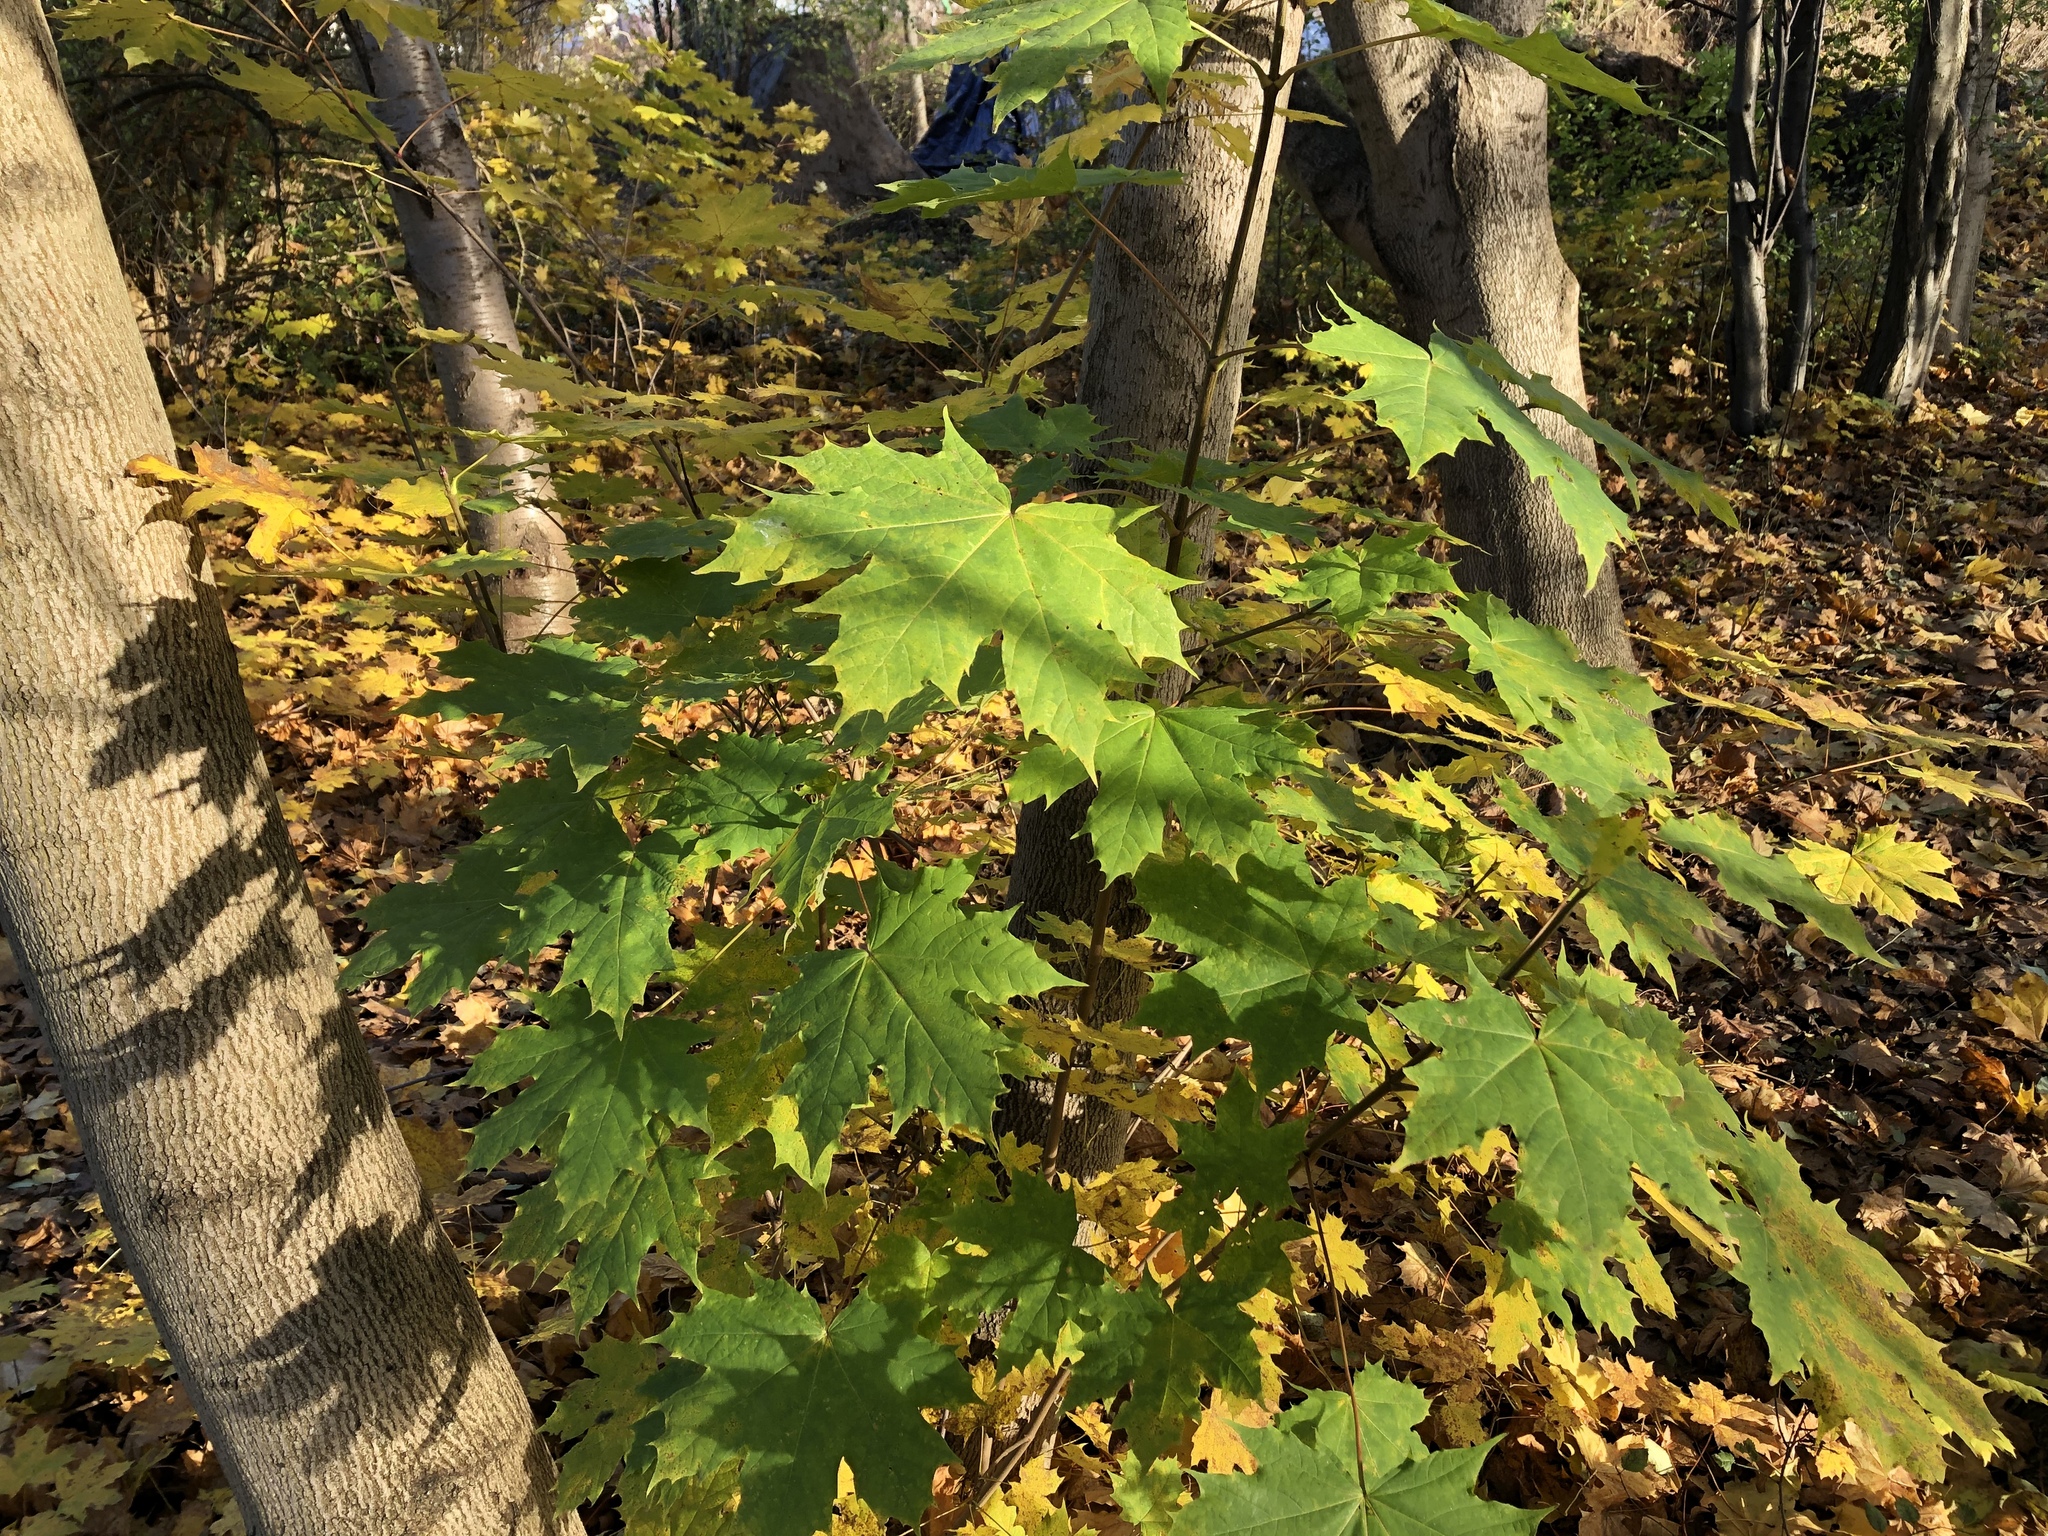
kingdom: Plantae
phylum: Tracheophyta
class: Magnoliopsida
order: Sapindales
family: Sapindaceae
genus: Acer
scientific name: Acer platanoides
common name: Norway maple
